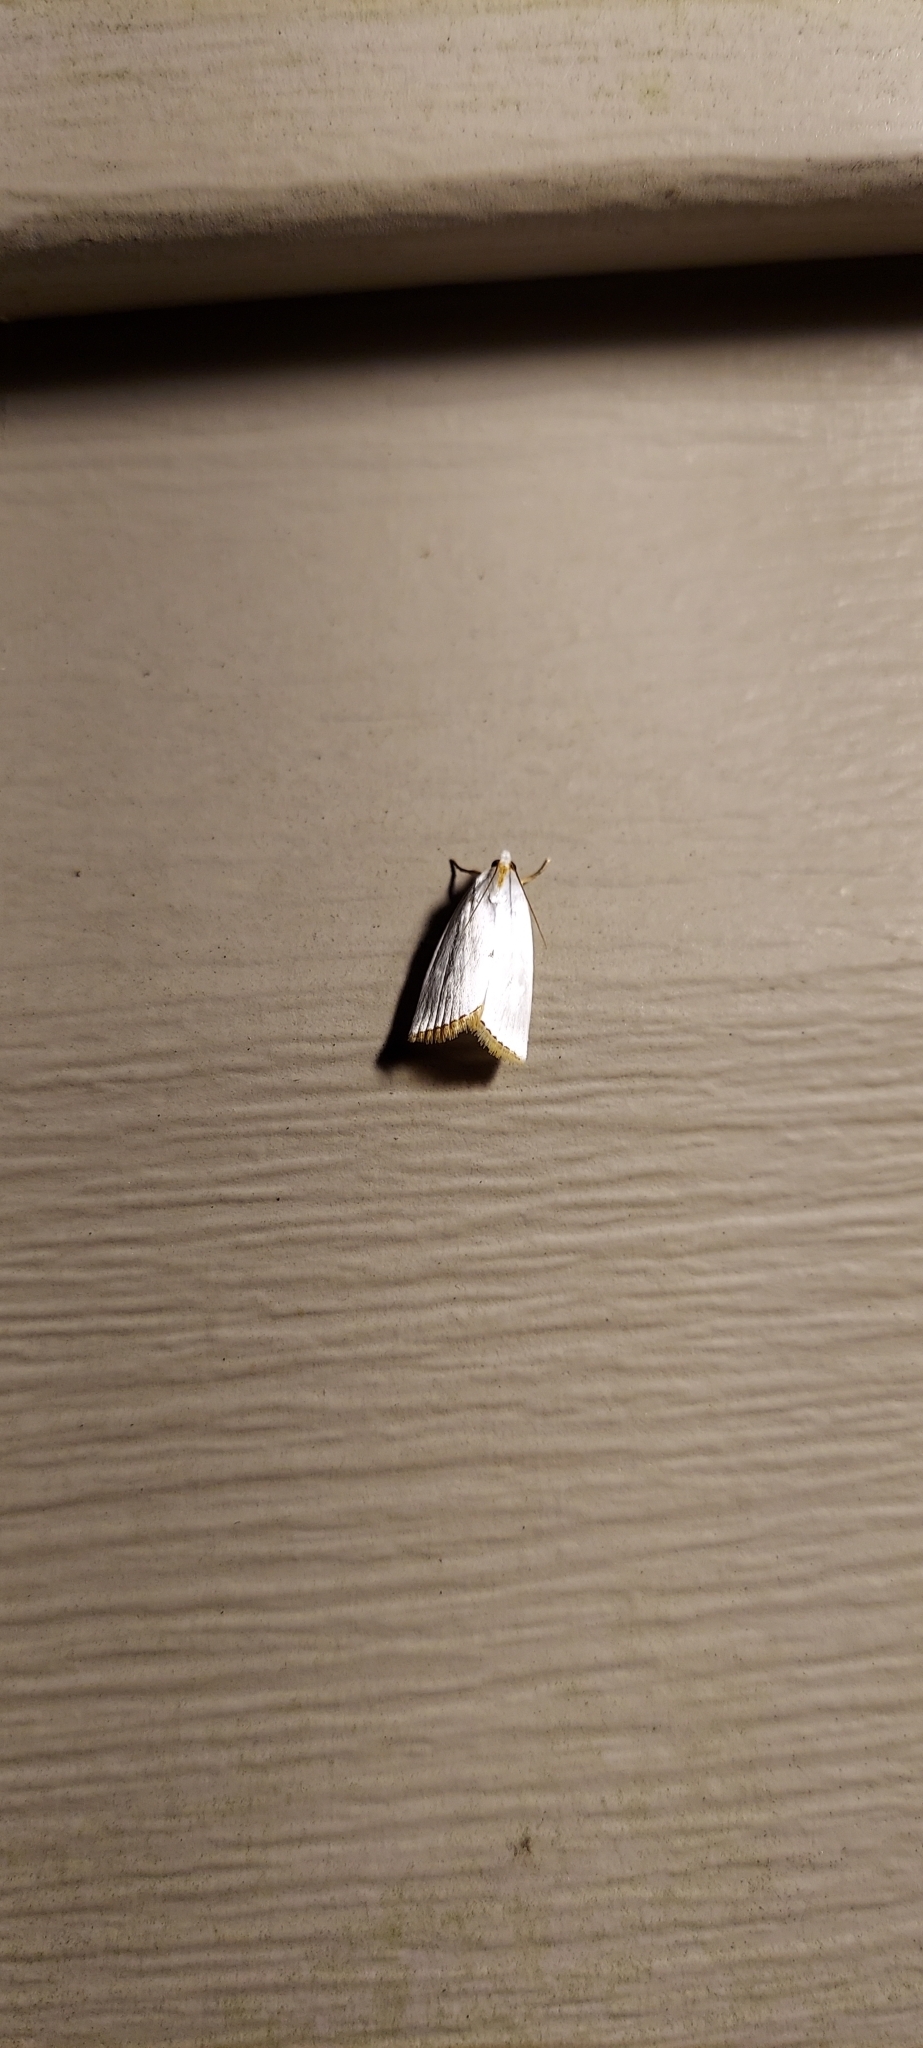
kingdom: Animalia
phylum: Arthropoda
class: Insecta
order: Lepidoptera
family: Crambidae
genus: Argyria
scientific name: Argyria nivalis
